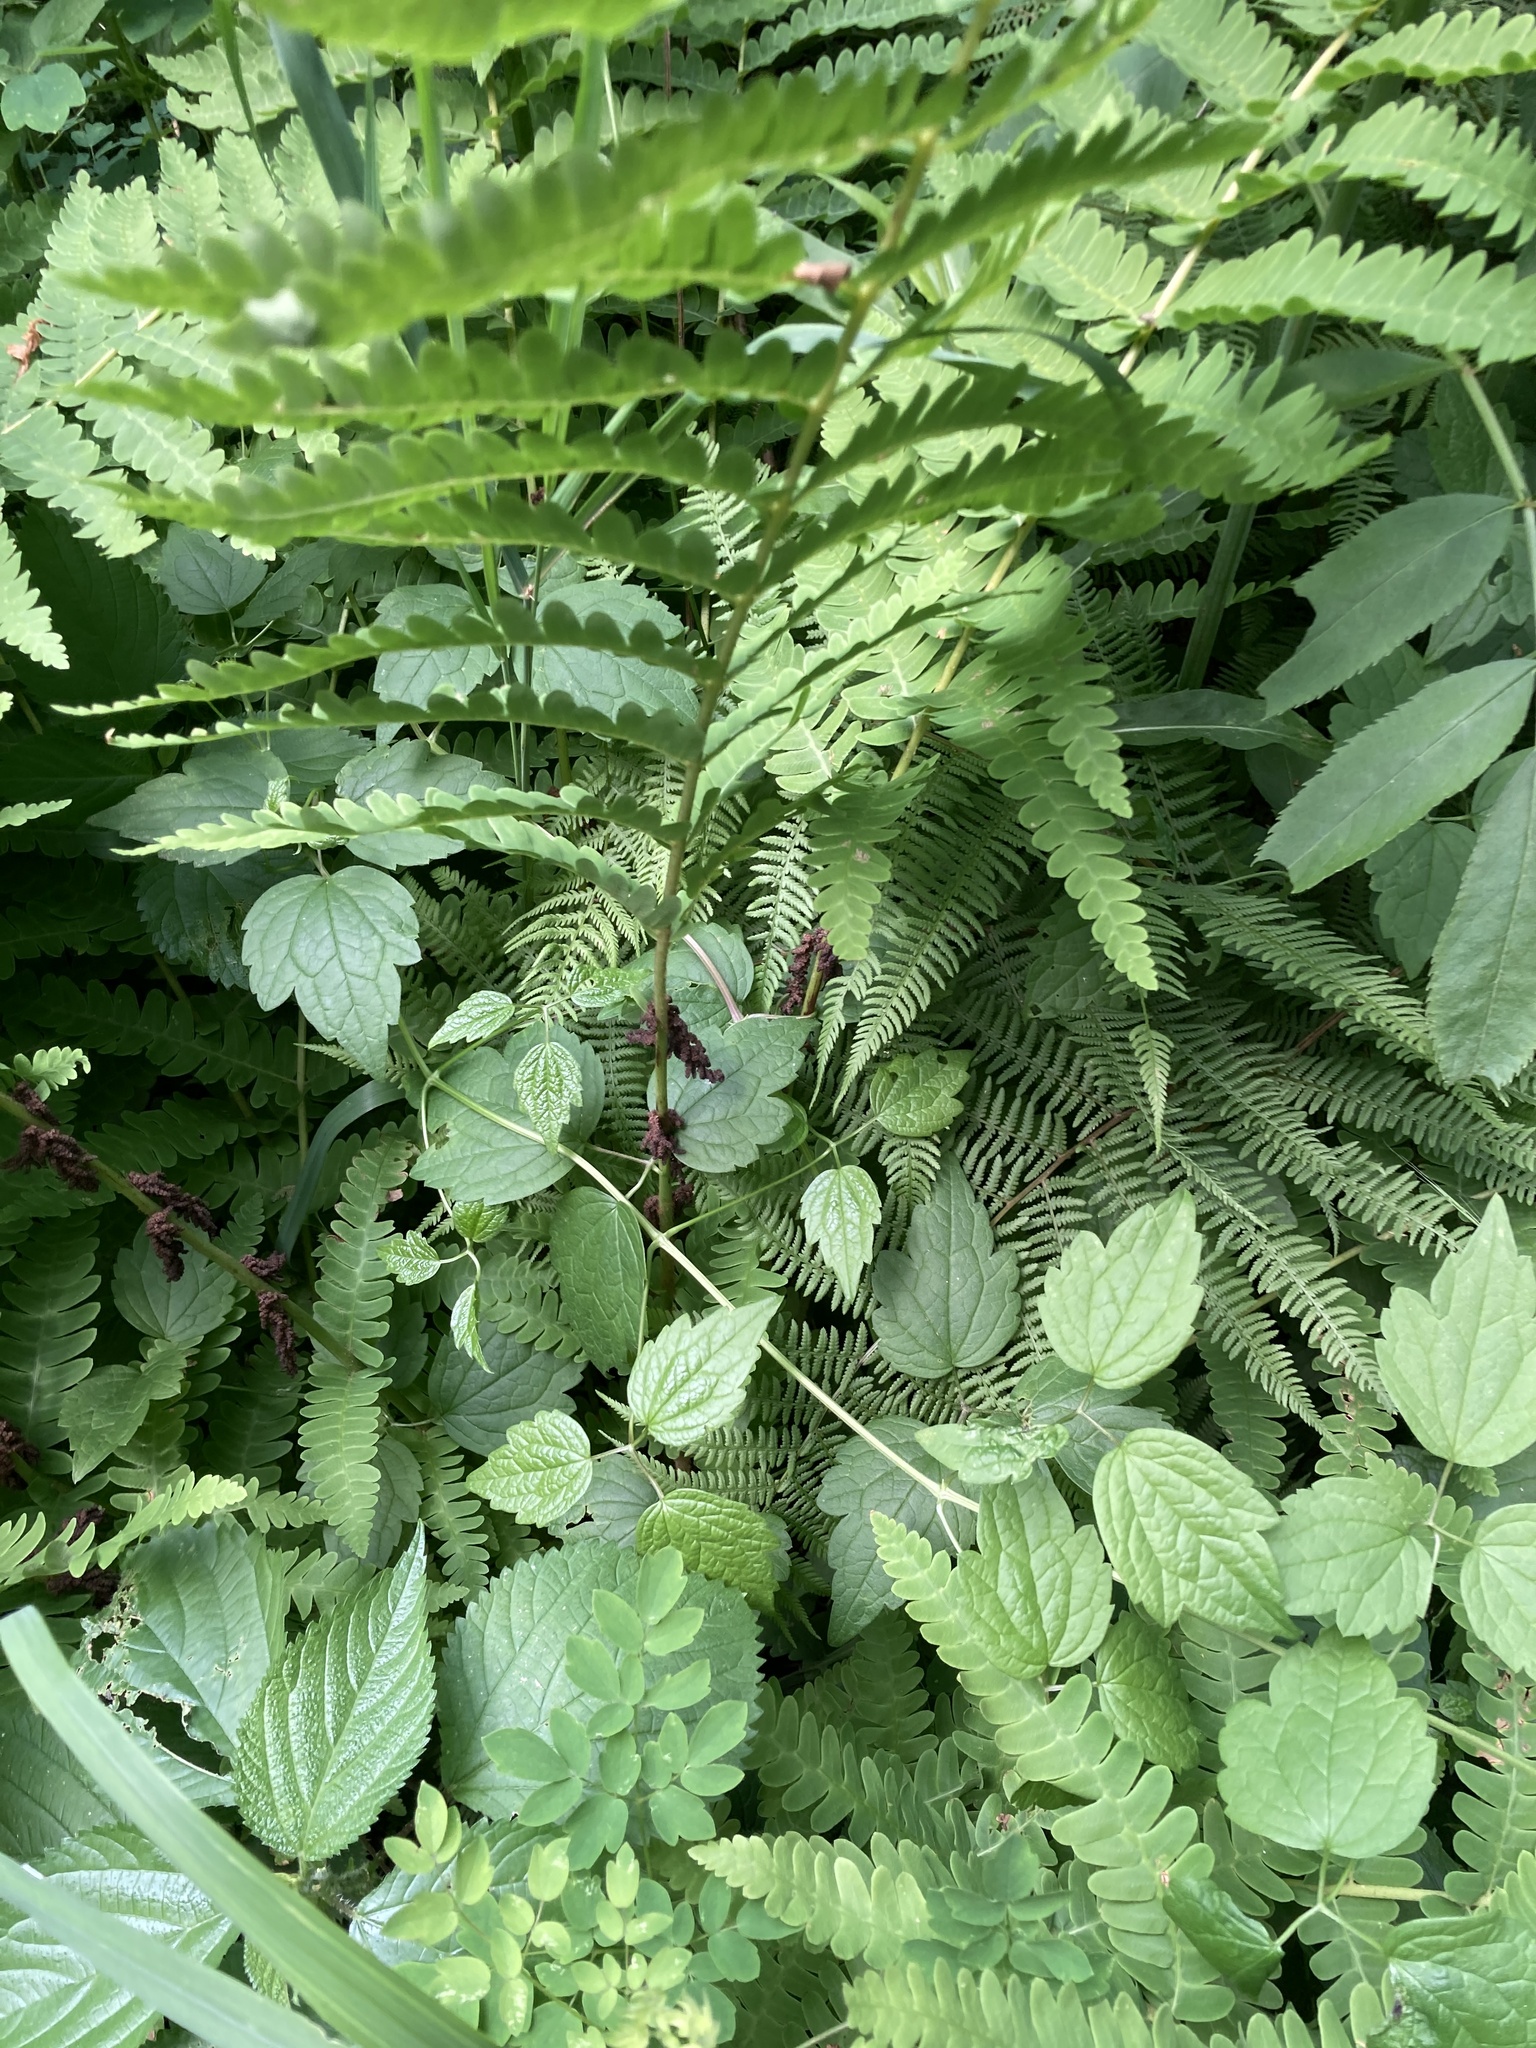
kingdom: Plantae
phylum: Tracheophyta
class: Polypodiopsida
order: Osmundales
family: Osmundaceae
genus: Claytosmunda
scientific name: Claytosmunda claytoniana
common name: Clayton's fern
